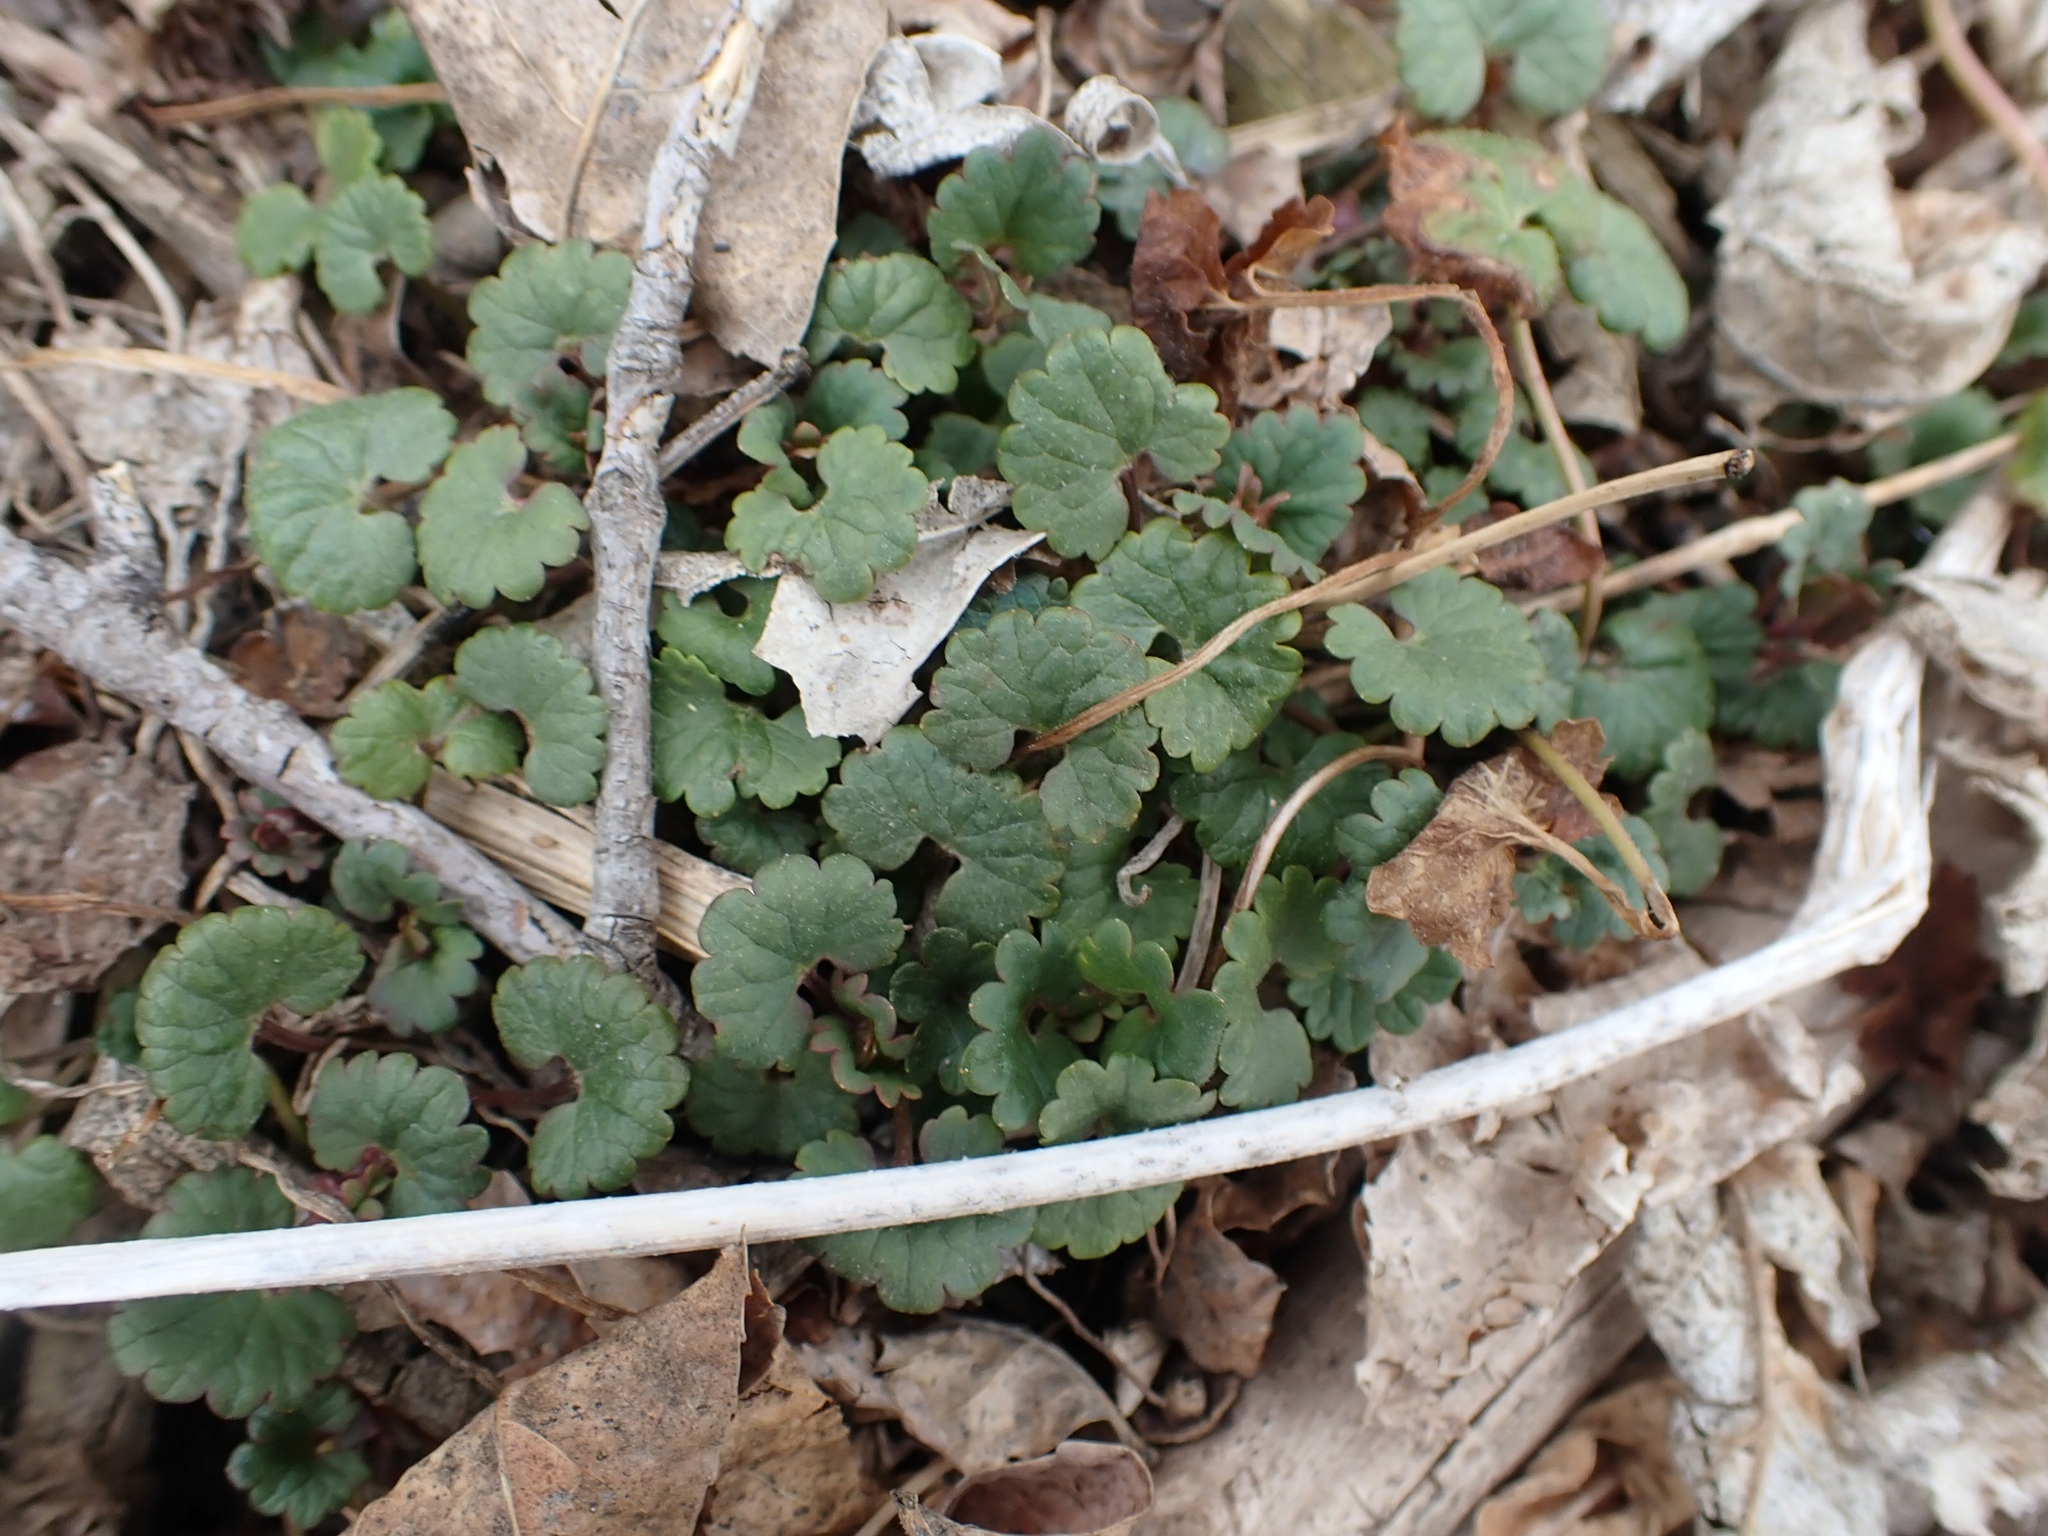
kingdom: Plantae
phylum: Tracheophyta
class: Magnoliopsida
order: Lamiales
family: Lamiaceae
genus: Glechoma
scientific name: Glechoma hederacea
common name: Ground ivy
